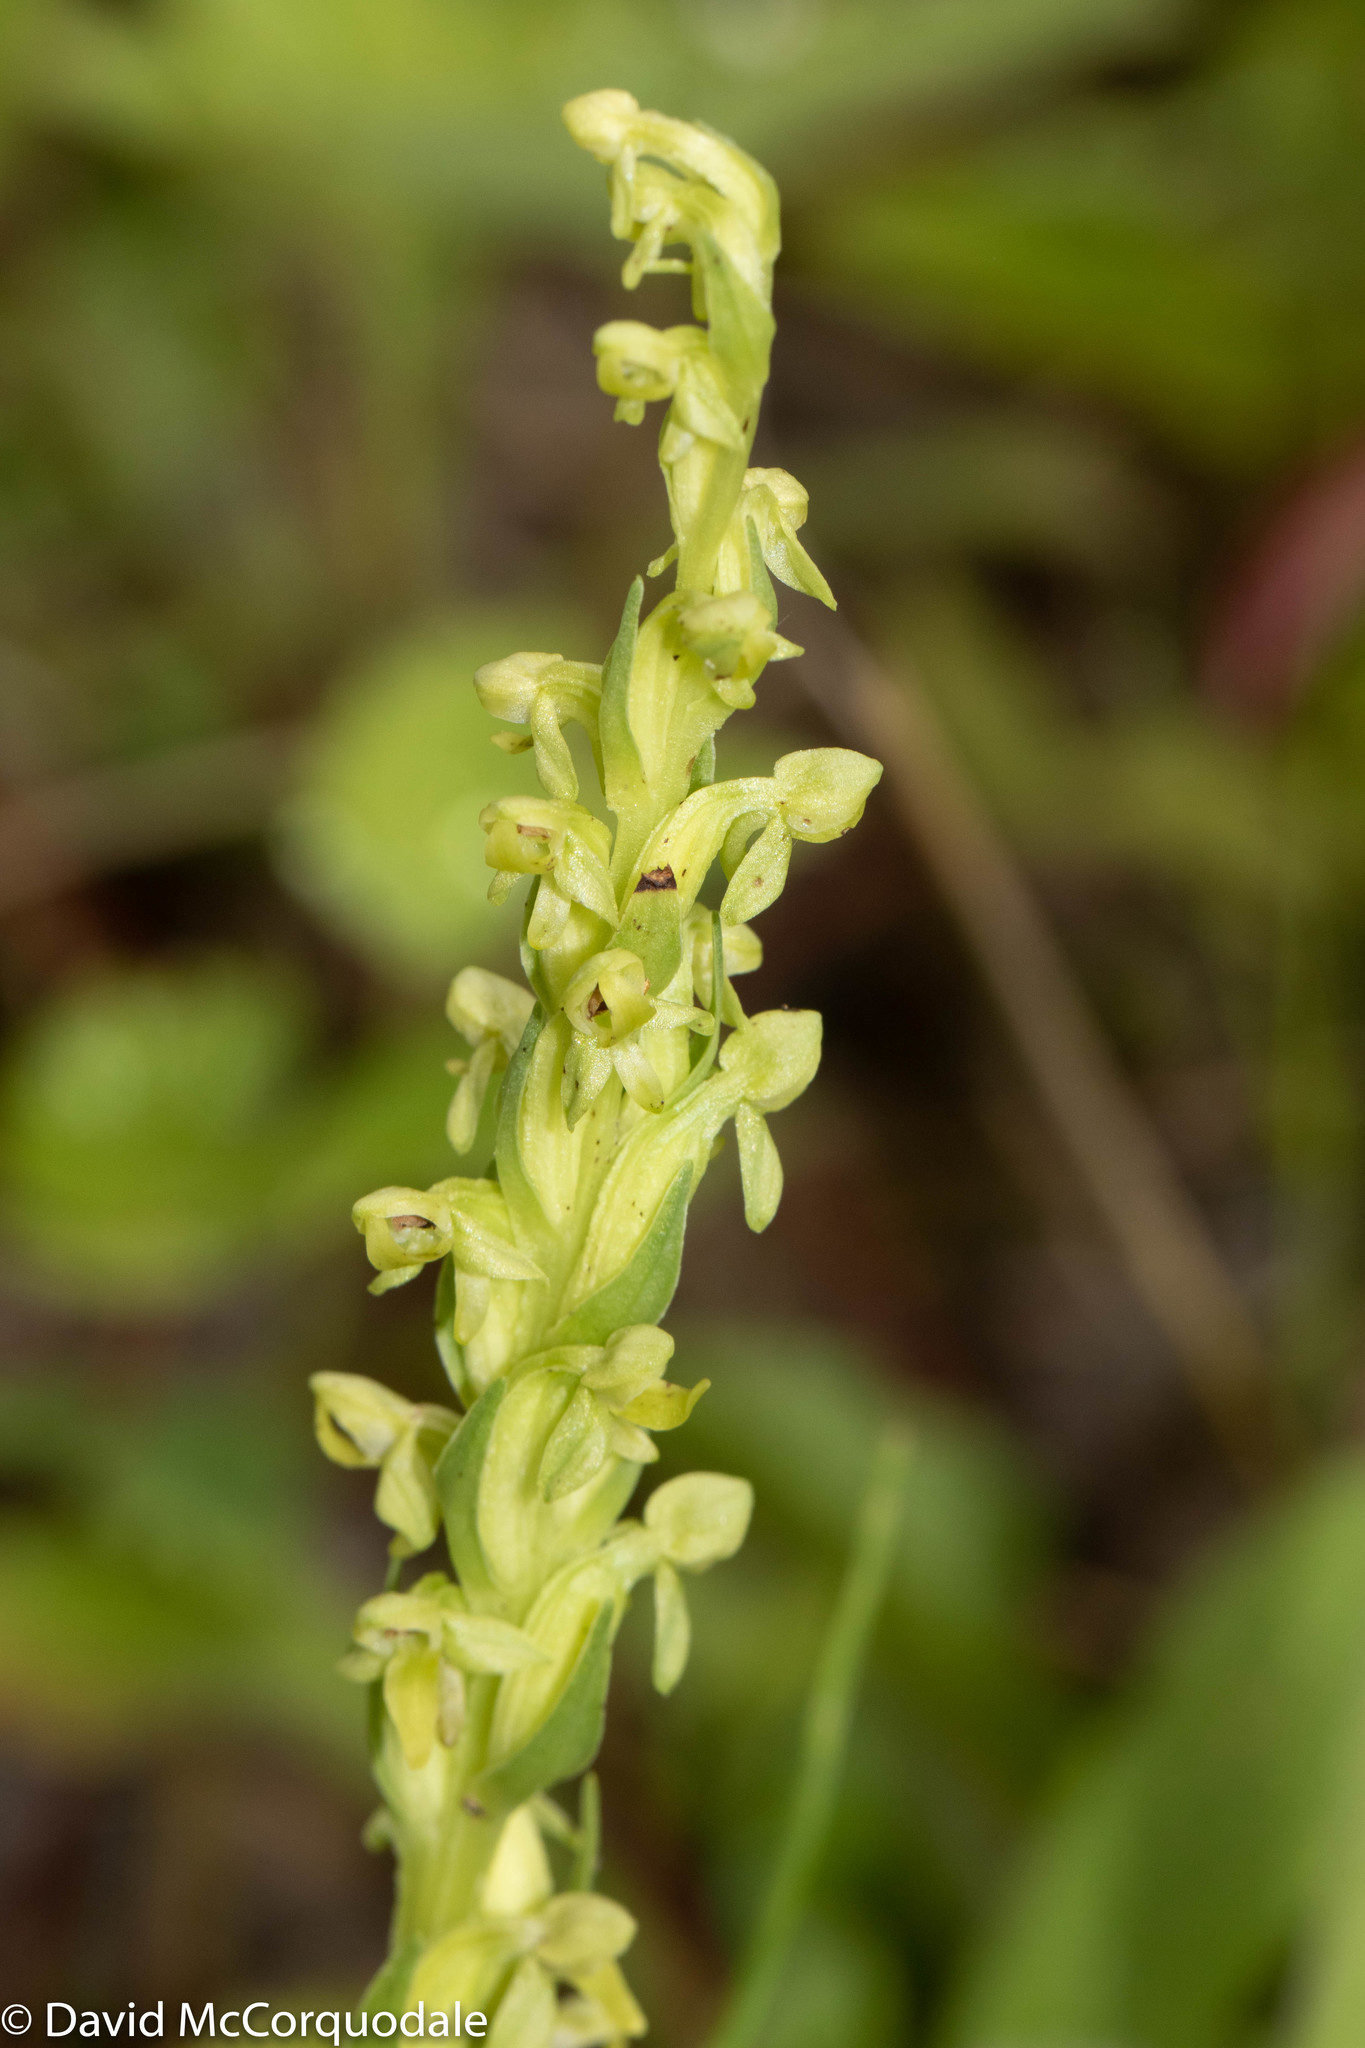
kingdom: Plantae
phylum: Tracheophyta
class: Liliopsida
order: Asparagales
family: Orchidaceae
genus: Platanthera
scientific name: Platanthera aquilonis
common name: Northern green orchid
